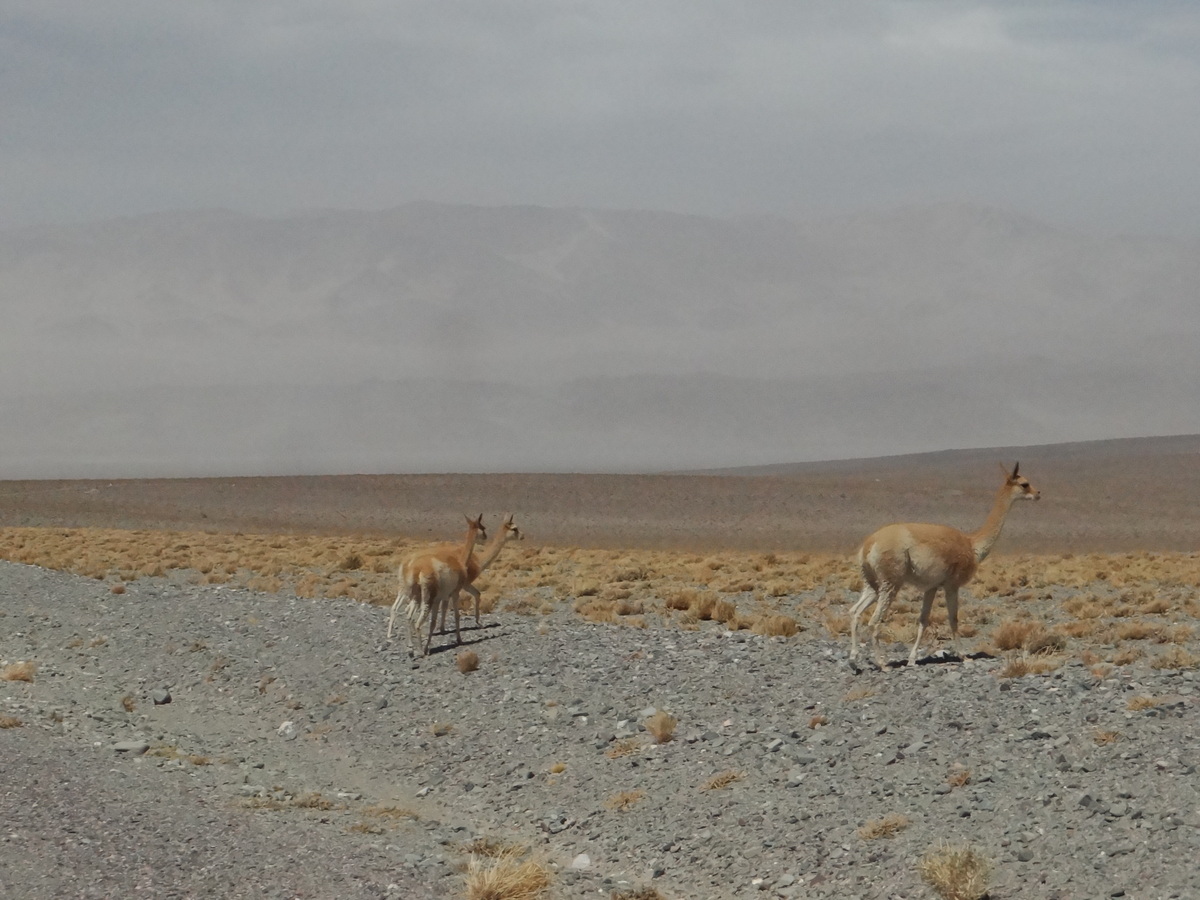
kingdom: Animalia
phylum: Chordata
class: Mammalia
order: Artiodactyla
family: Camelidae
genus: Vicugna
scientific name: Vicugna vicugna
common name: Vicugna
